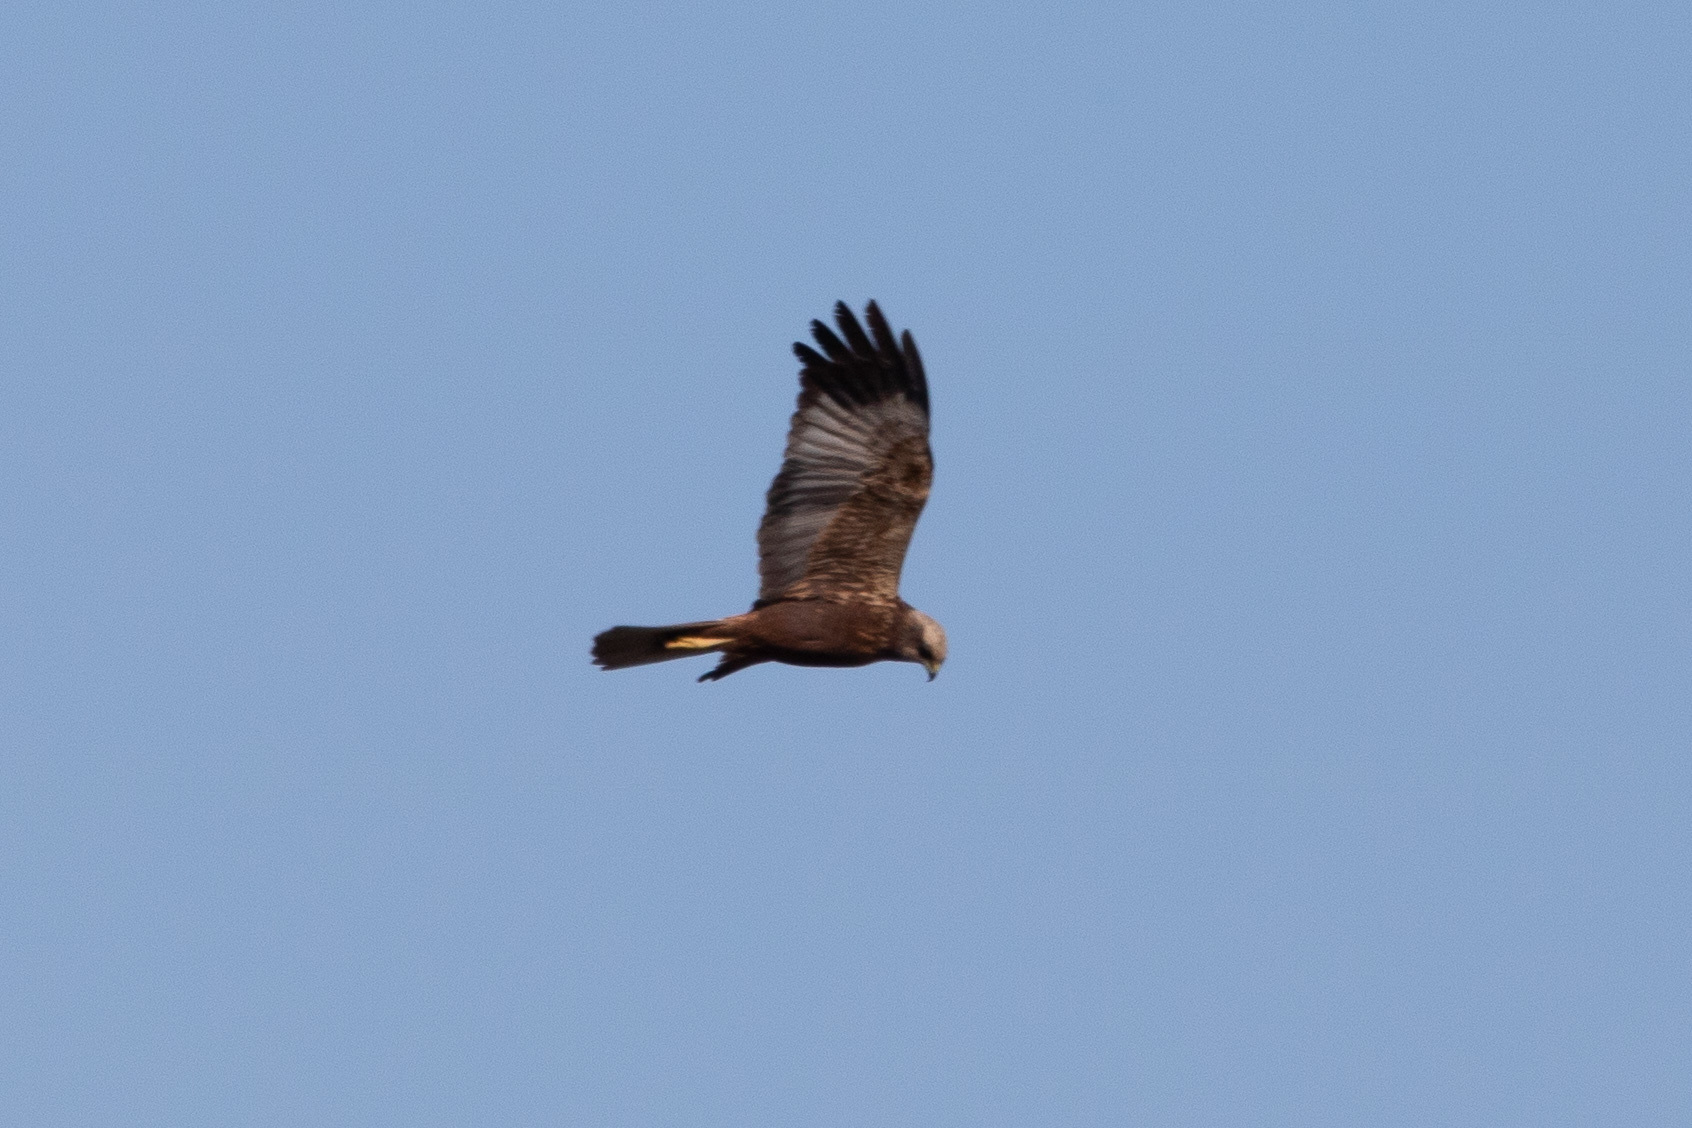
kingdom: Animalia
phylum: Chordata
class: Aves
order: Accipitriformes
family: Accipitridae
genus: Circus
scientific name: Circus aeruginosus
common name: Western marsh harrier
